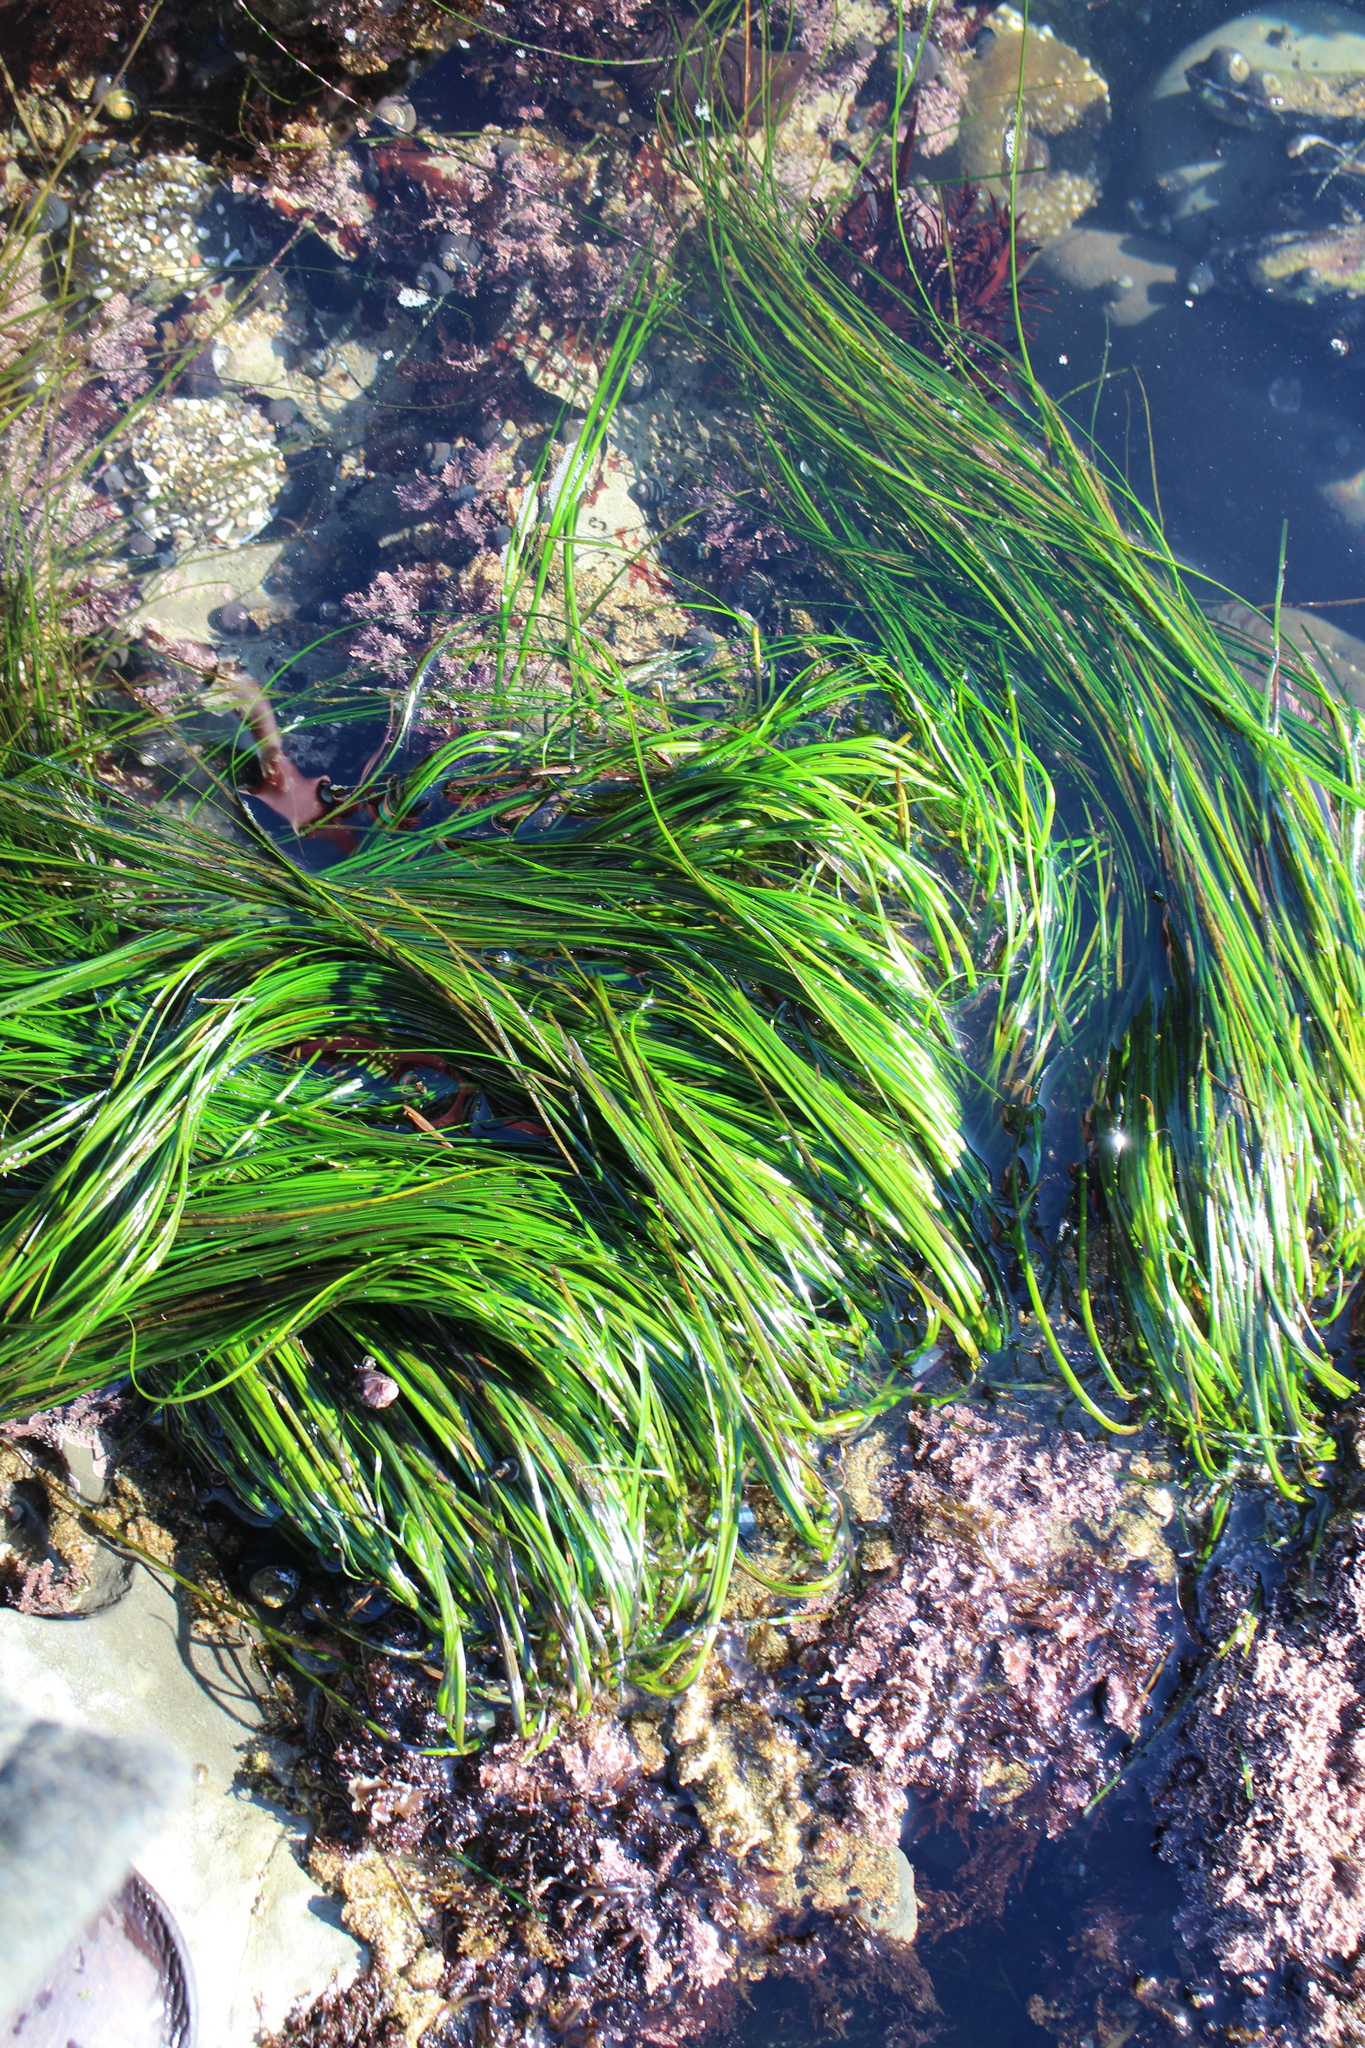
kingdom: Plantae
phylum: Tracheophyta
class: Liliopsida
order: Alismatales
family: Zosteraceae
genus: Phyllospadix
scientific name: Phyllospadix torreyi
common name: Surfgrass
